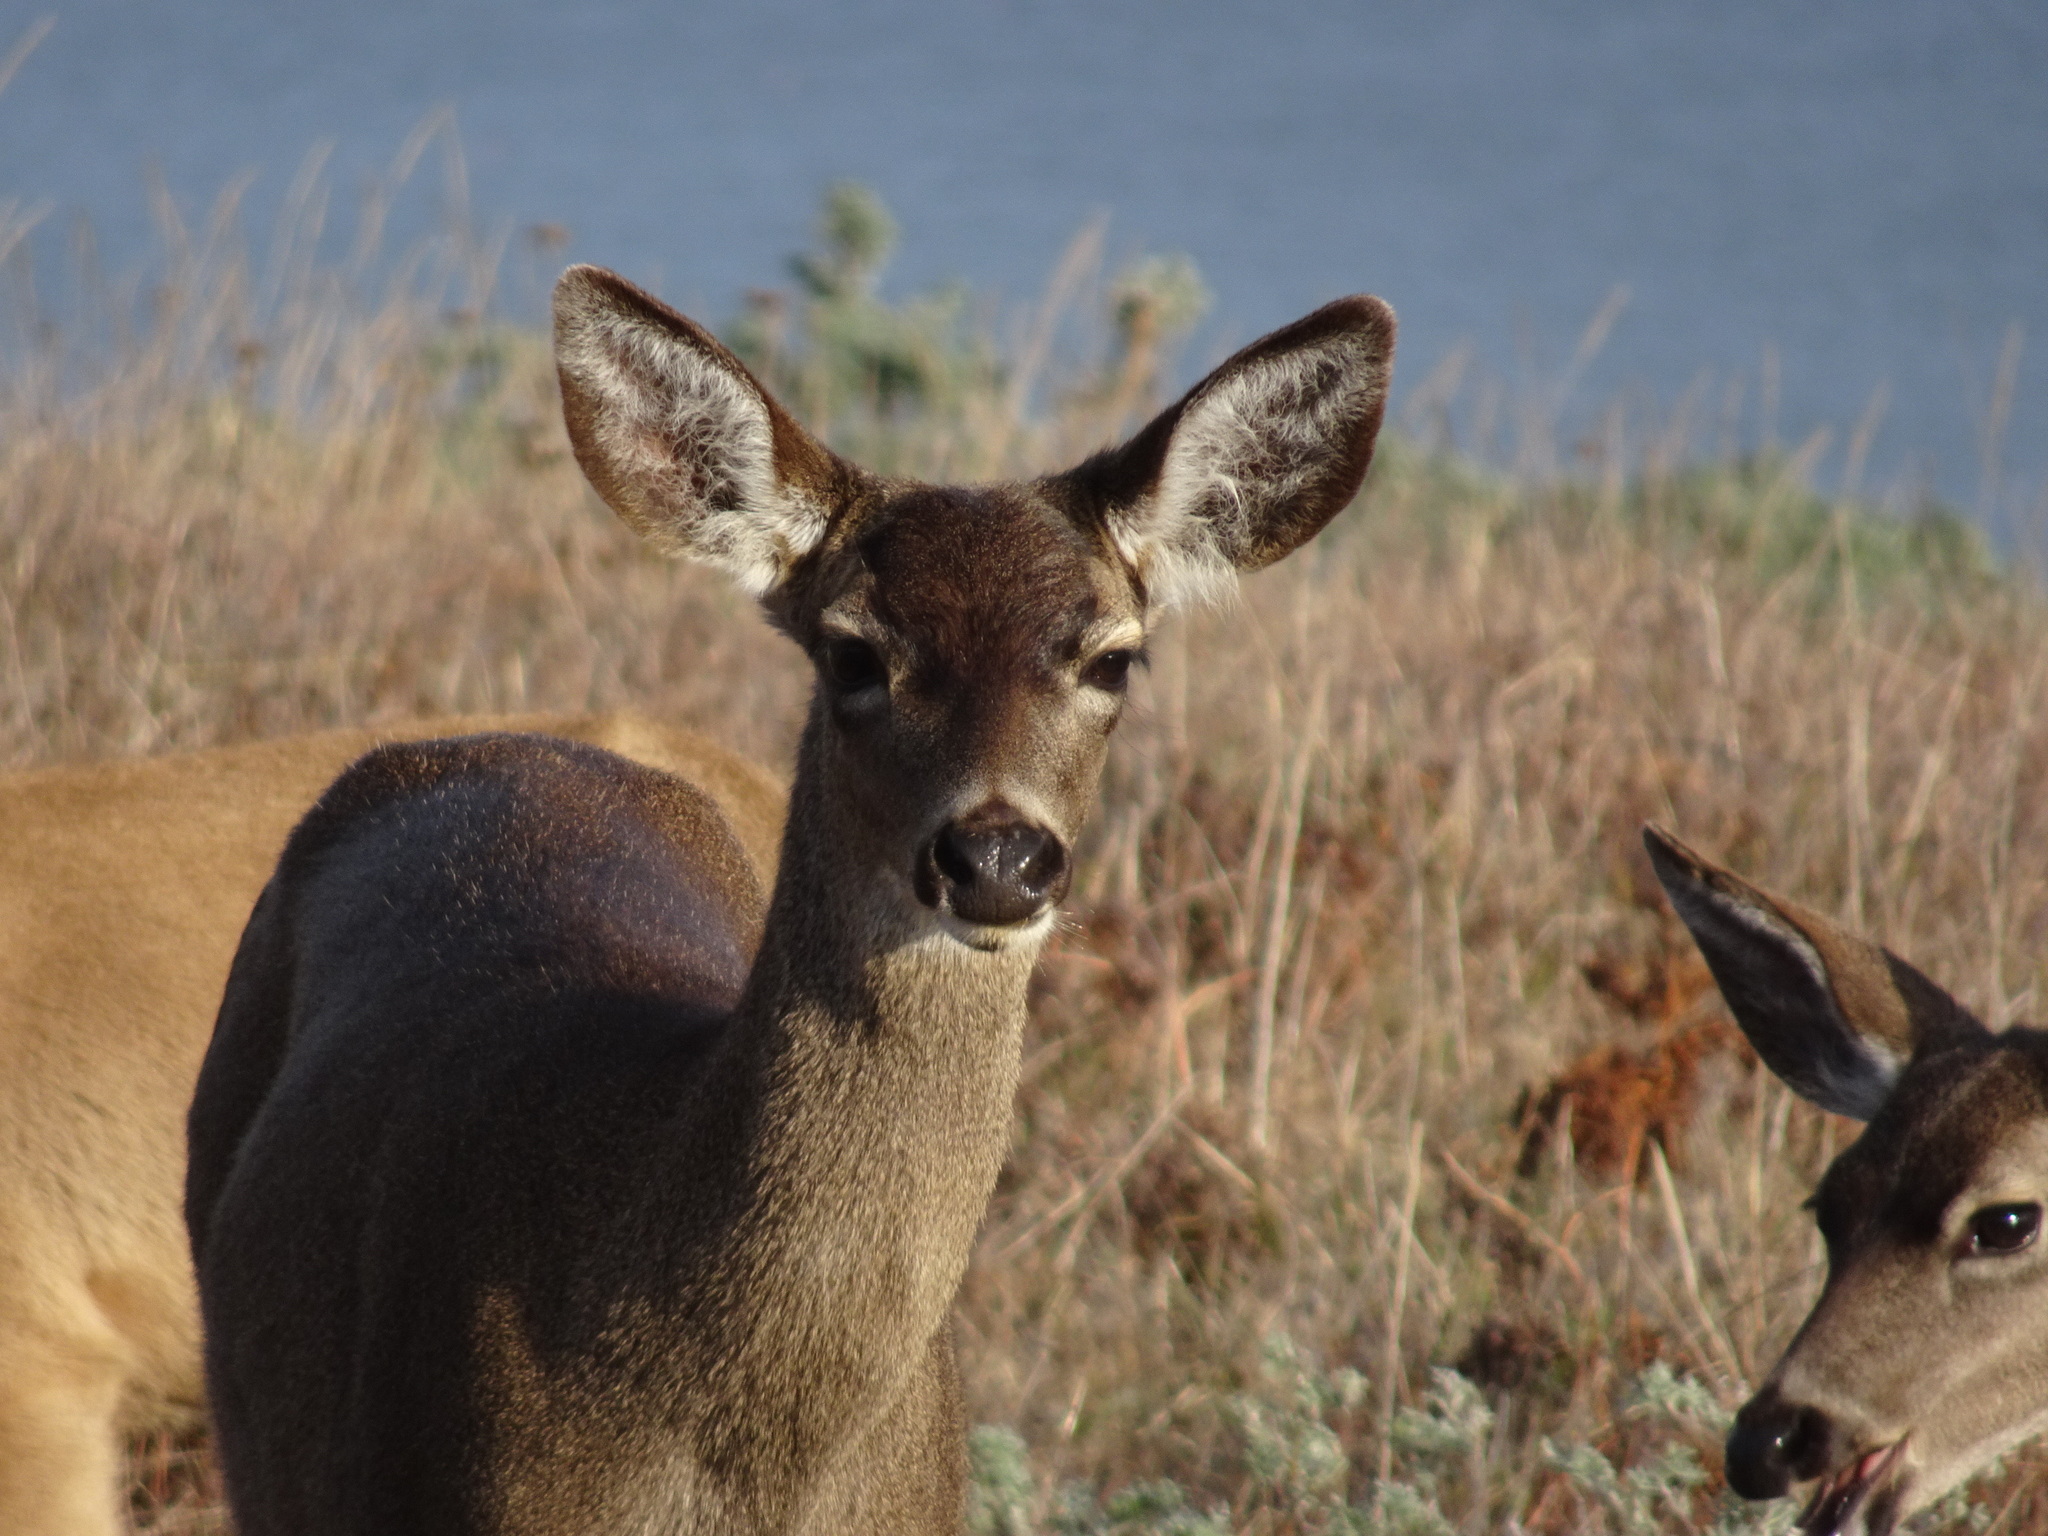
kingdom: Animalia
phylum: Chordata
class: Mammalia
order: Artiodactyla
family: Cervidae
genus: Odocoileus
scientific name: Odocoileus hemionus
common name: Mule deer
